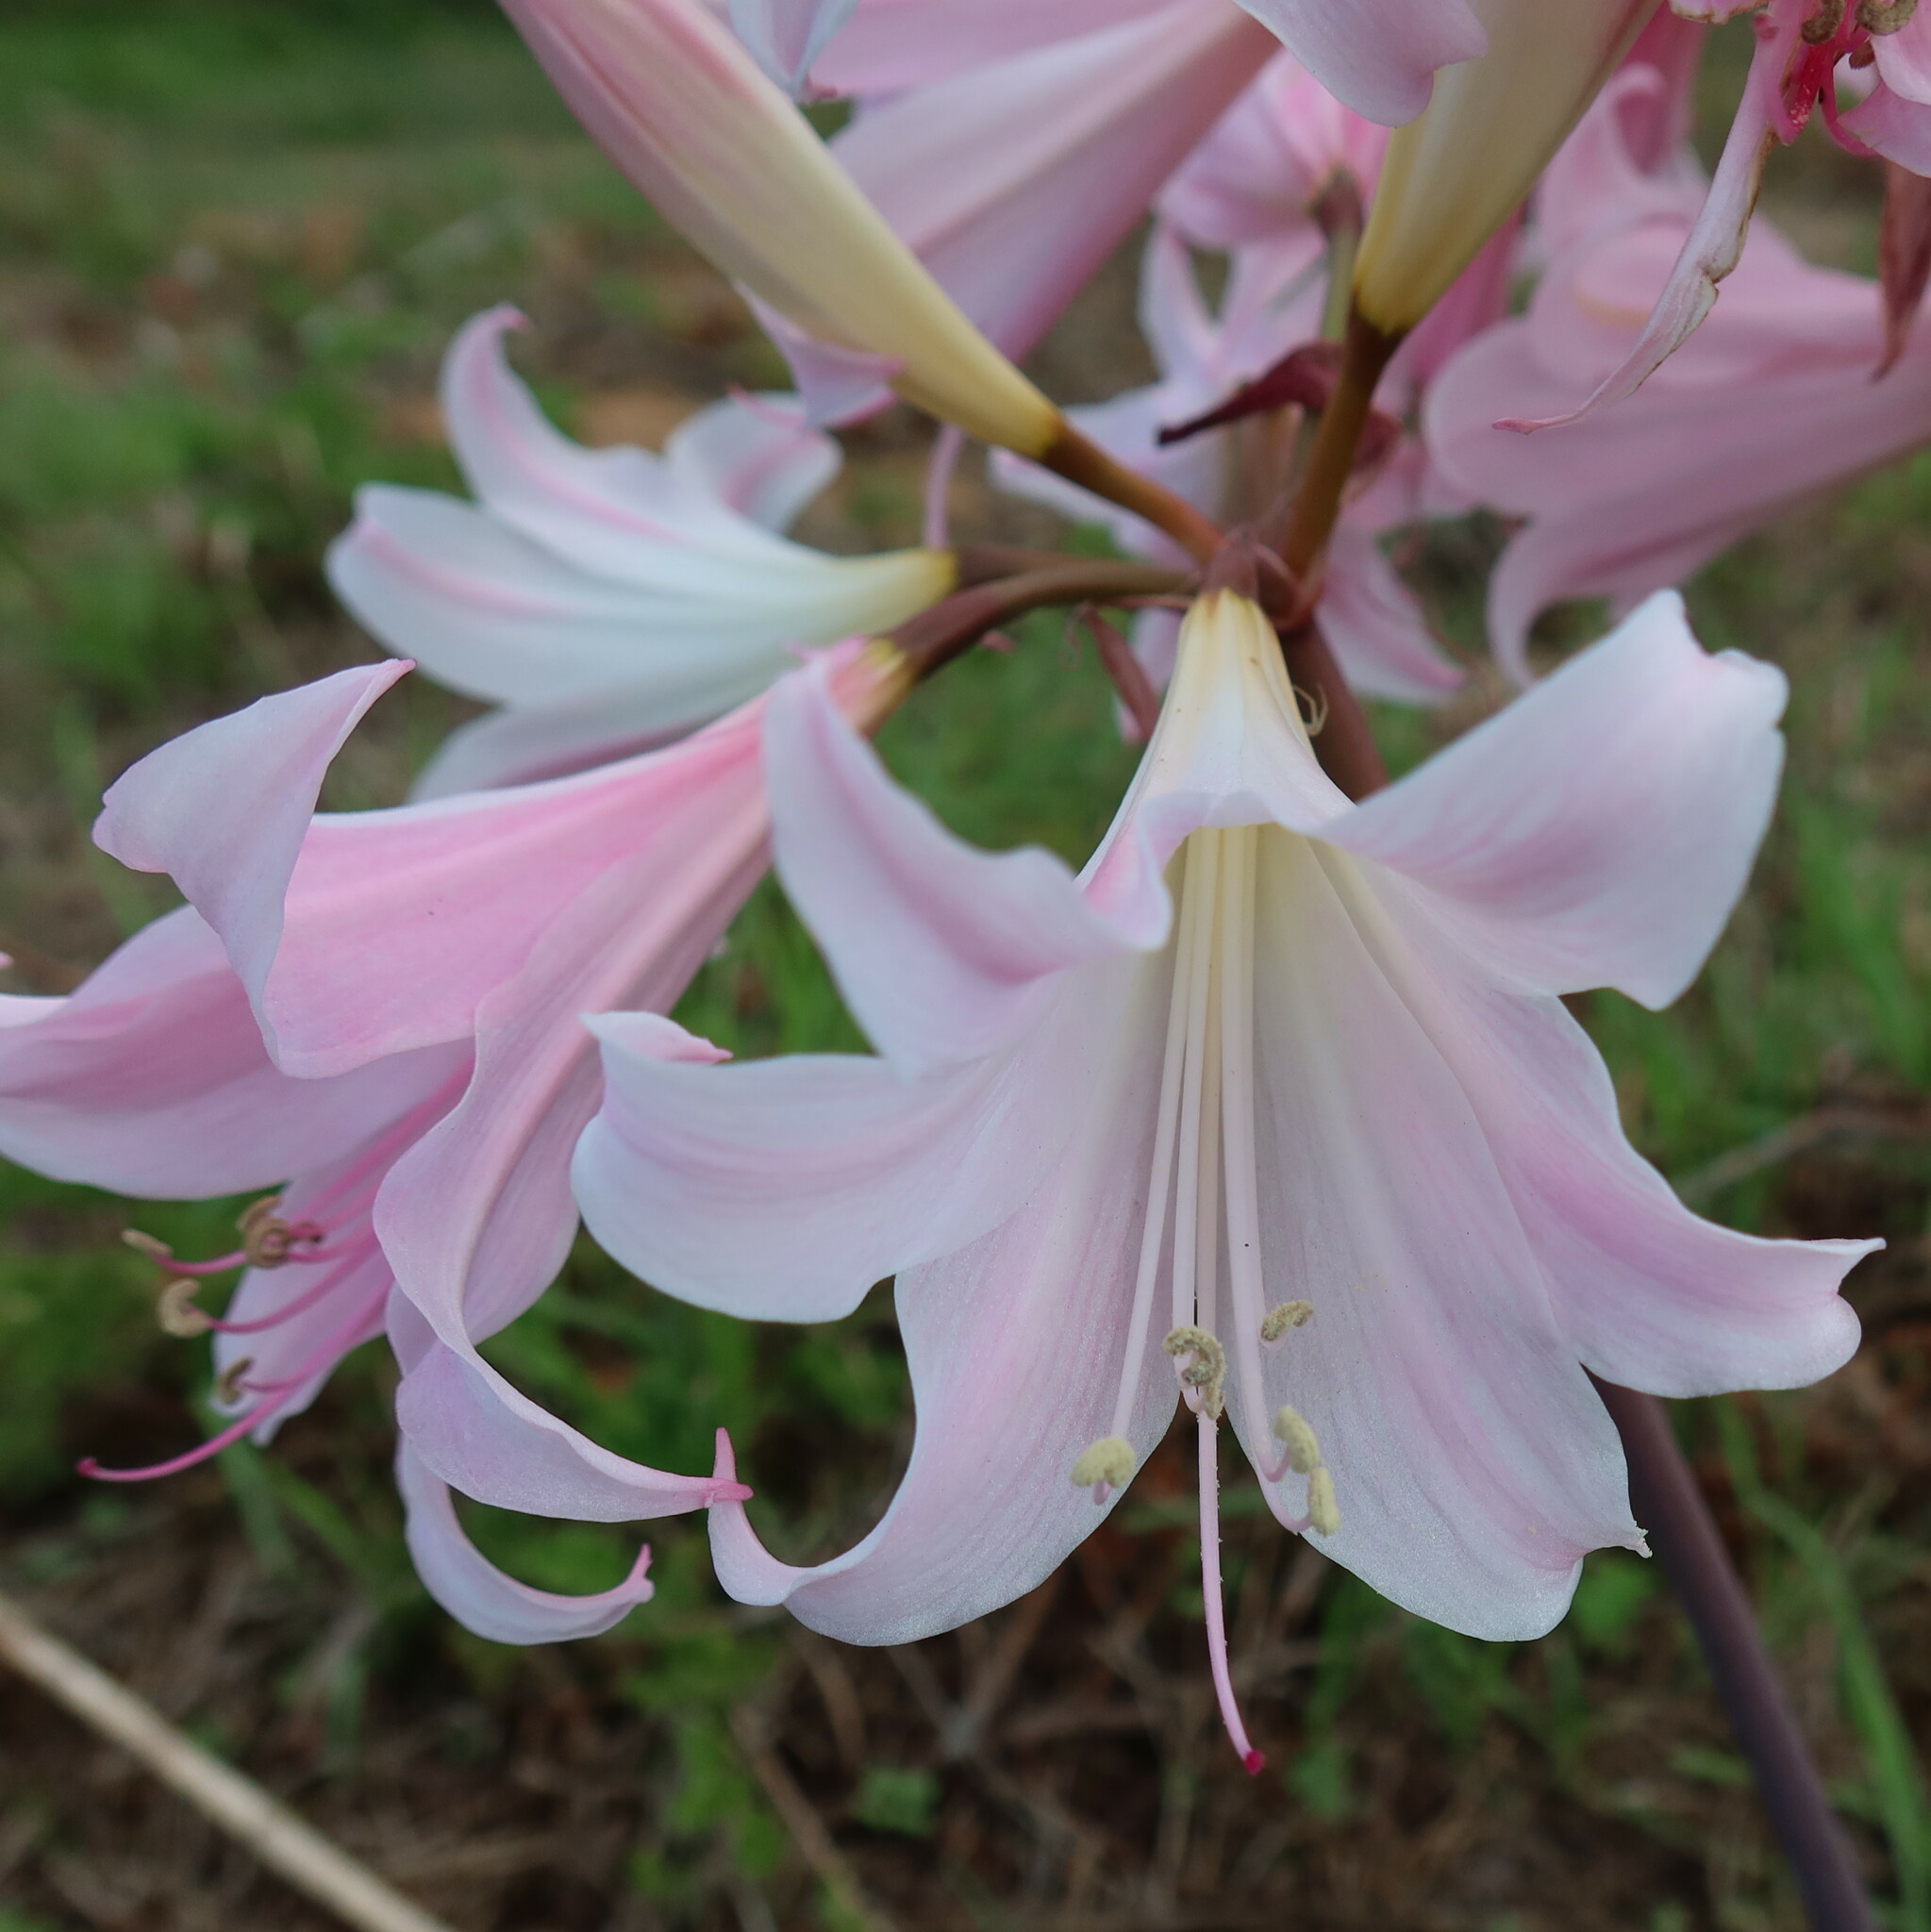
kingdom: Plantae
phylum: Tracheophyta
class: Liliopsida
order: Asparagales
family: Amaryllidaceae
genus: Amaryllis
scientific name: Amaryllis belladonna
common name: Jersey lily
